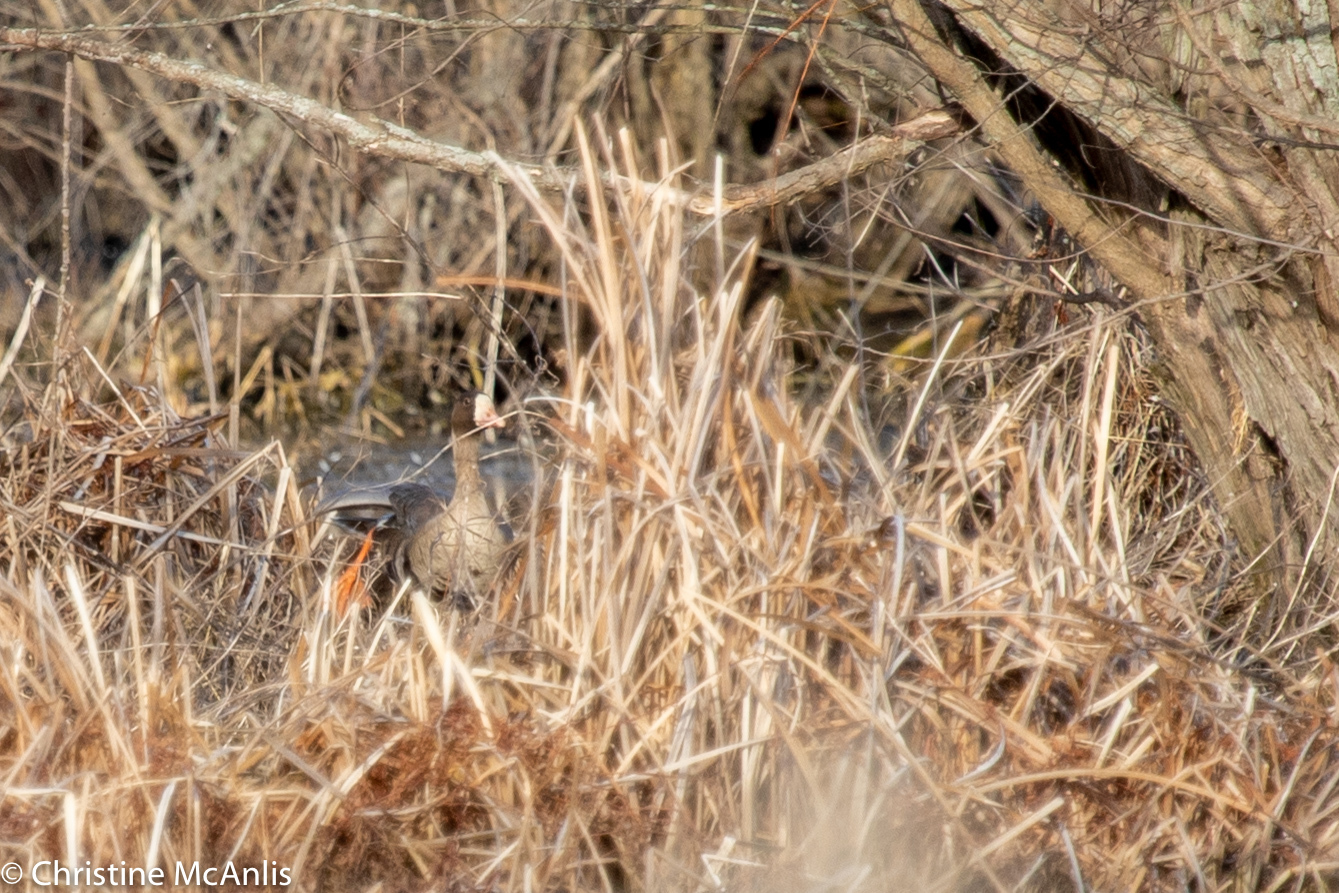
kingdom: Animalia
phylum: Chordata
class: Aves
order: Anseriformes
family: Anatidae
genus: Anser
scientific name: Anser albifrons
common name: Greater white-fronted goose
